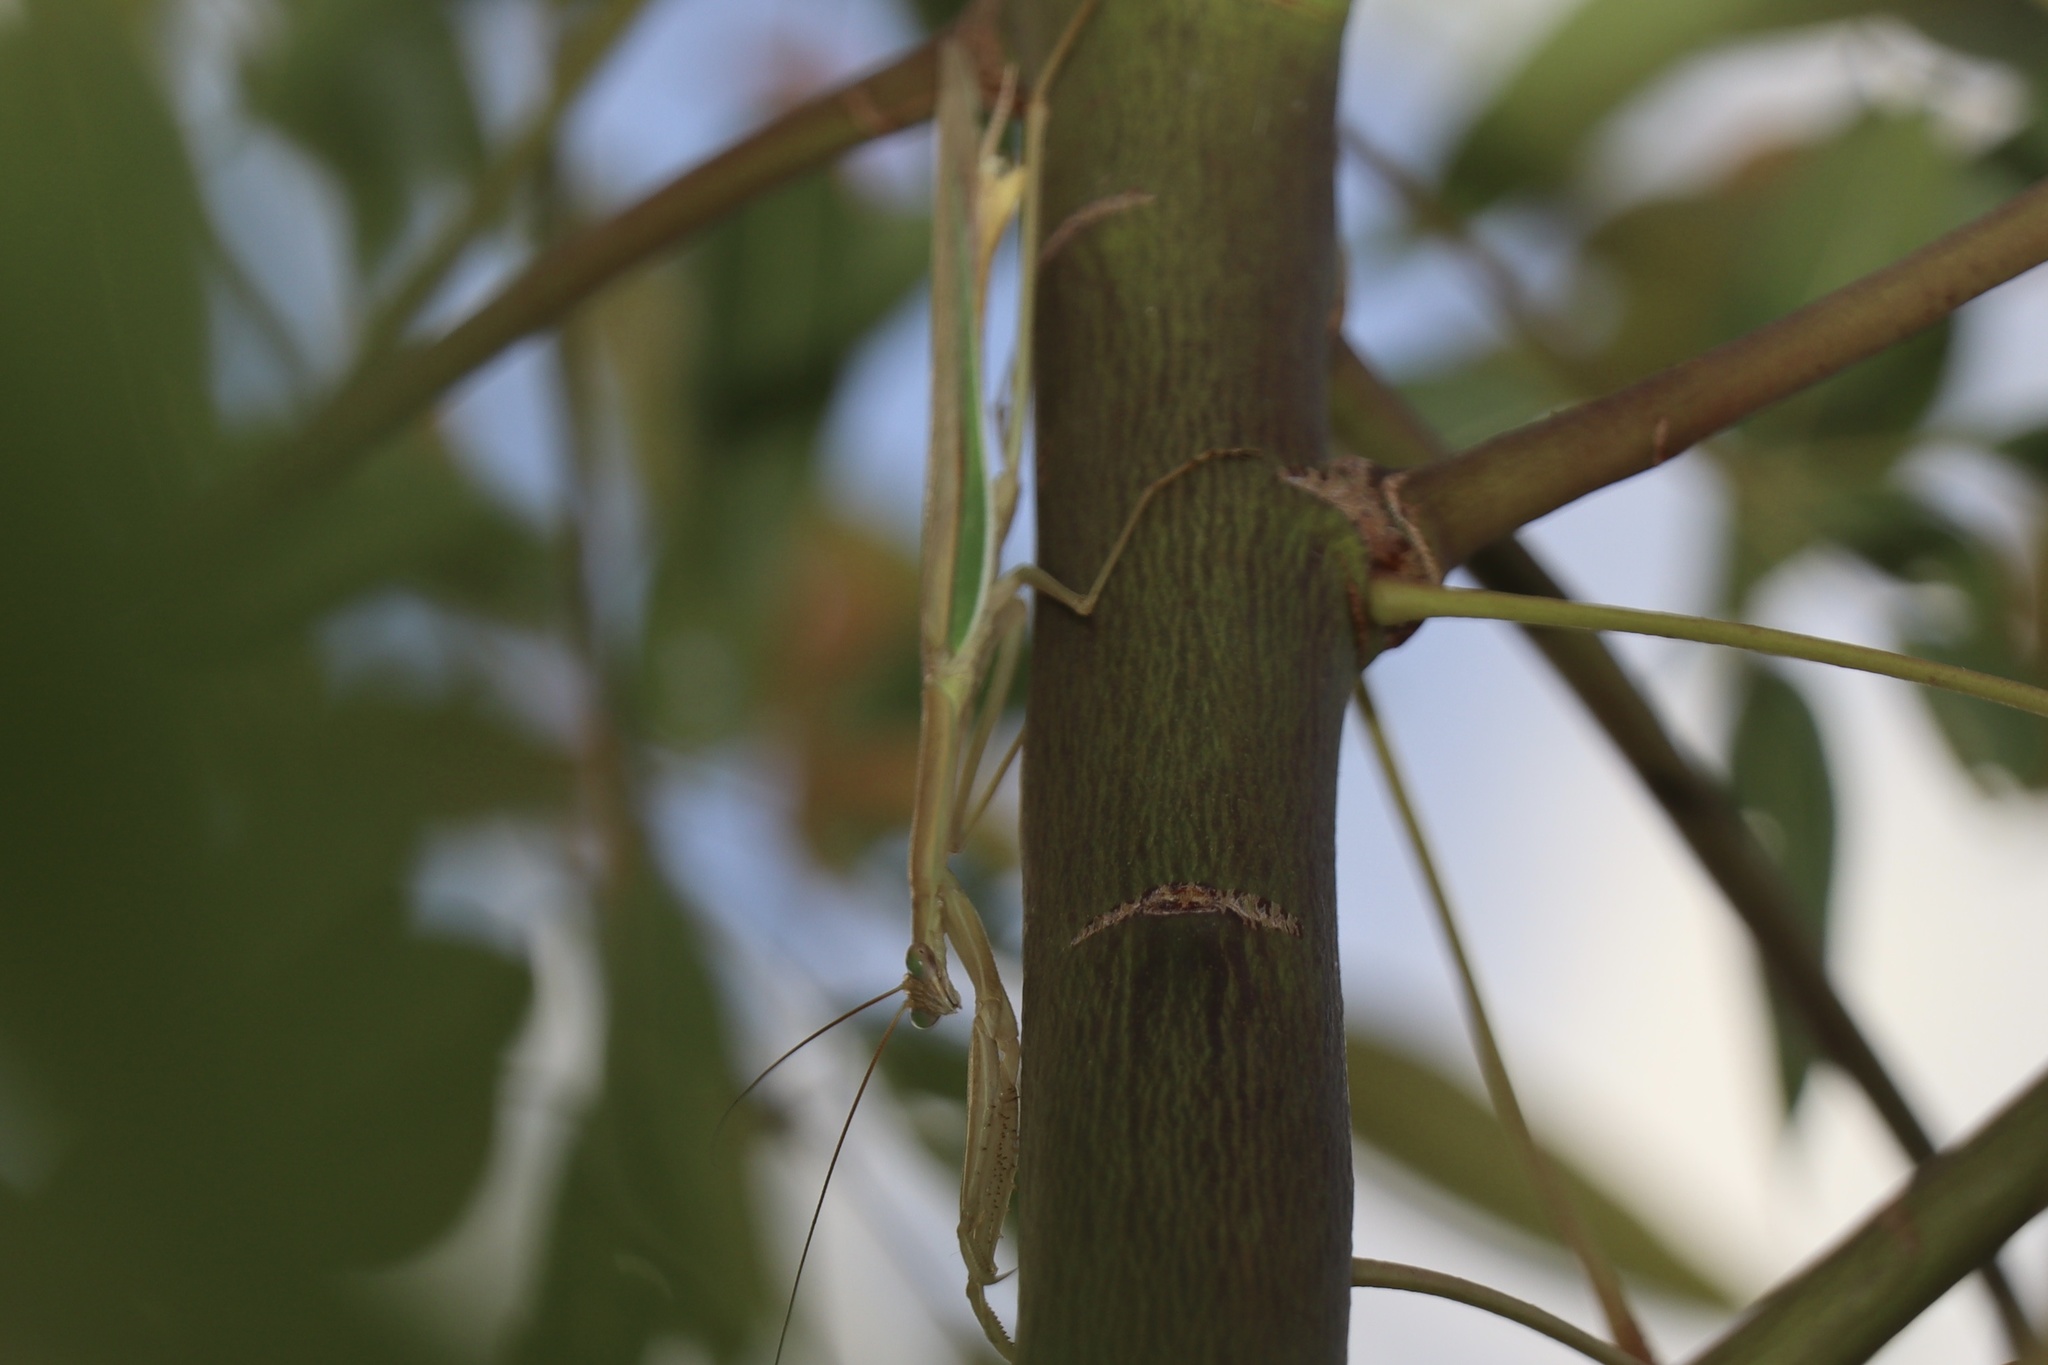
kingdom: Animalia
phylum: Arthropoda
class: Insecta
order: Mantodea
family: Mantidae
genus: Tenodera
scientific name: Tenodera australasiae
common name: Purple-winged mantis
